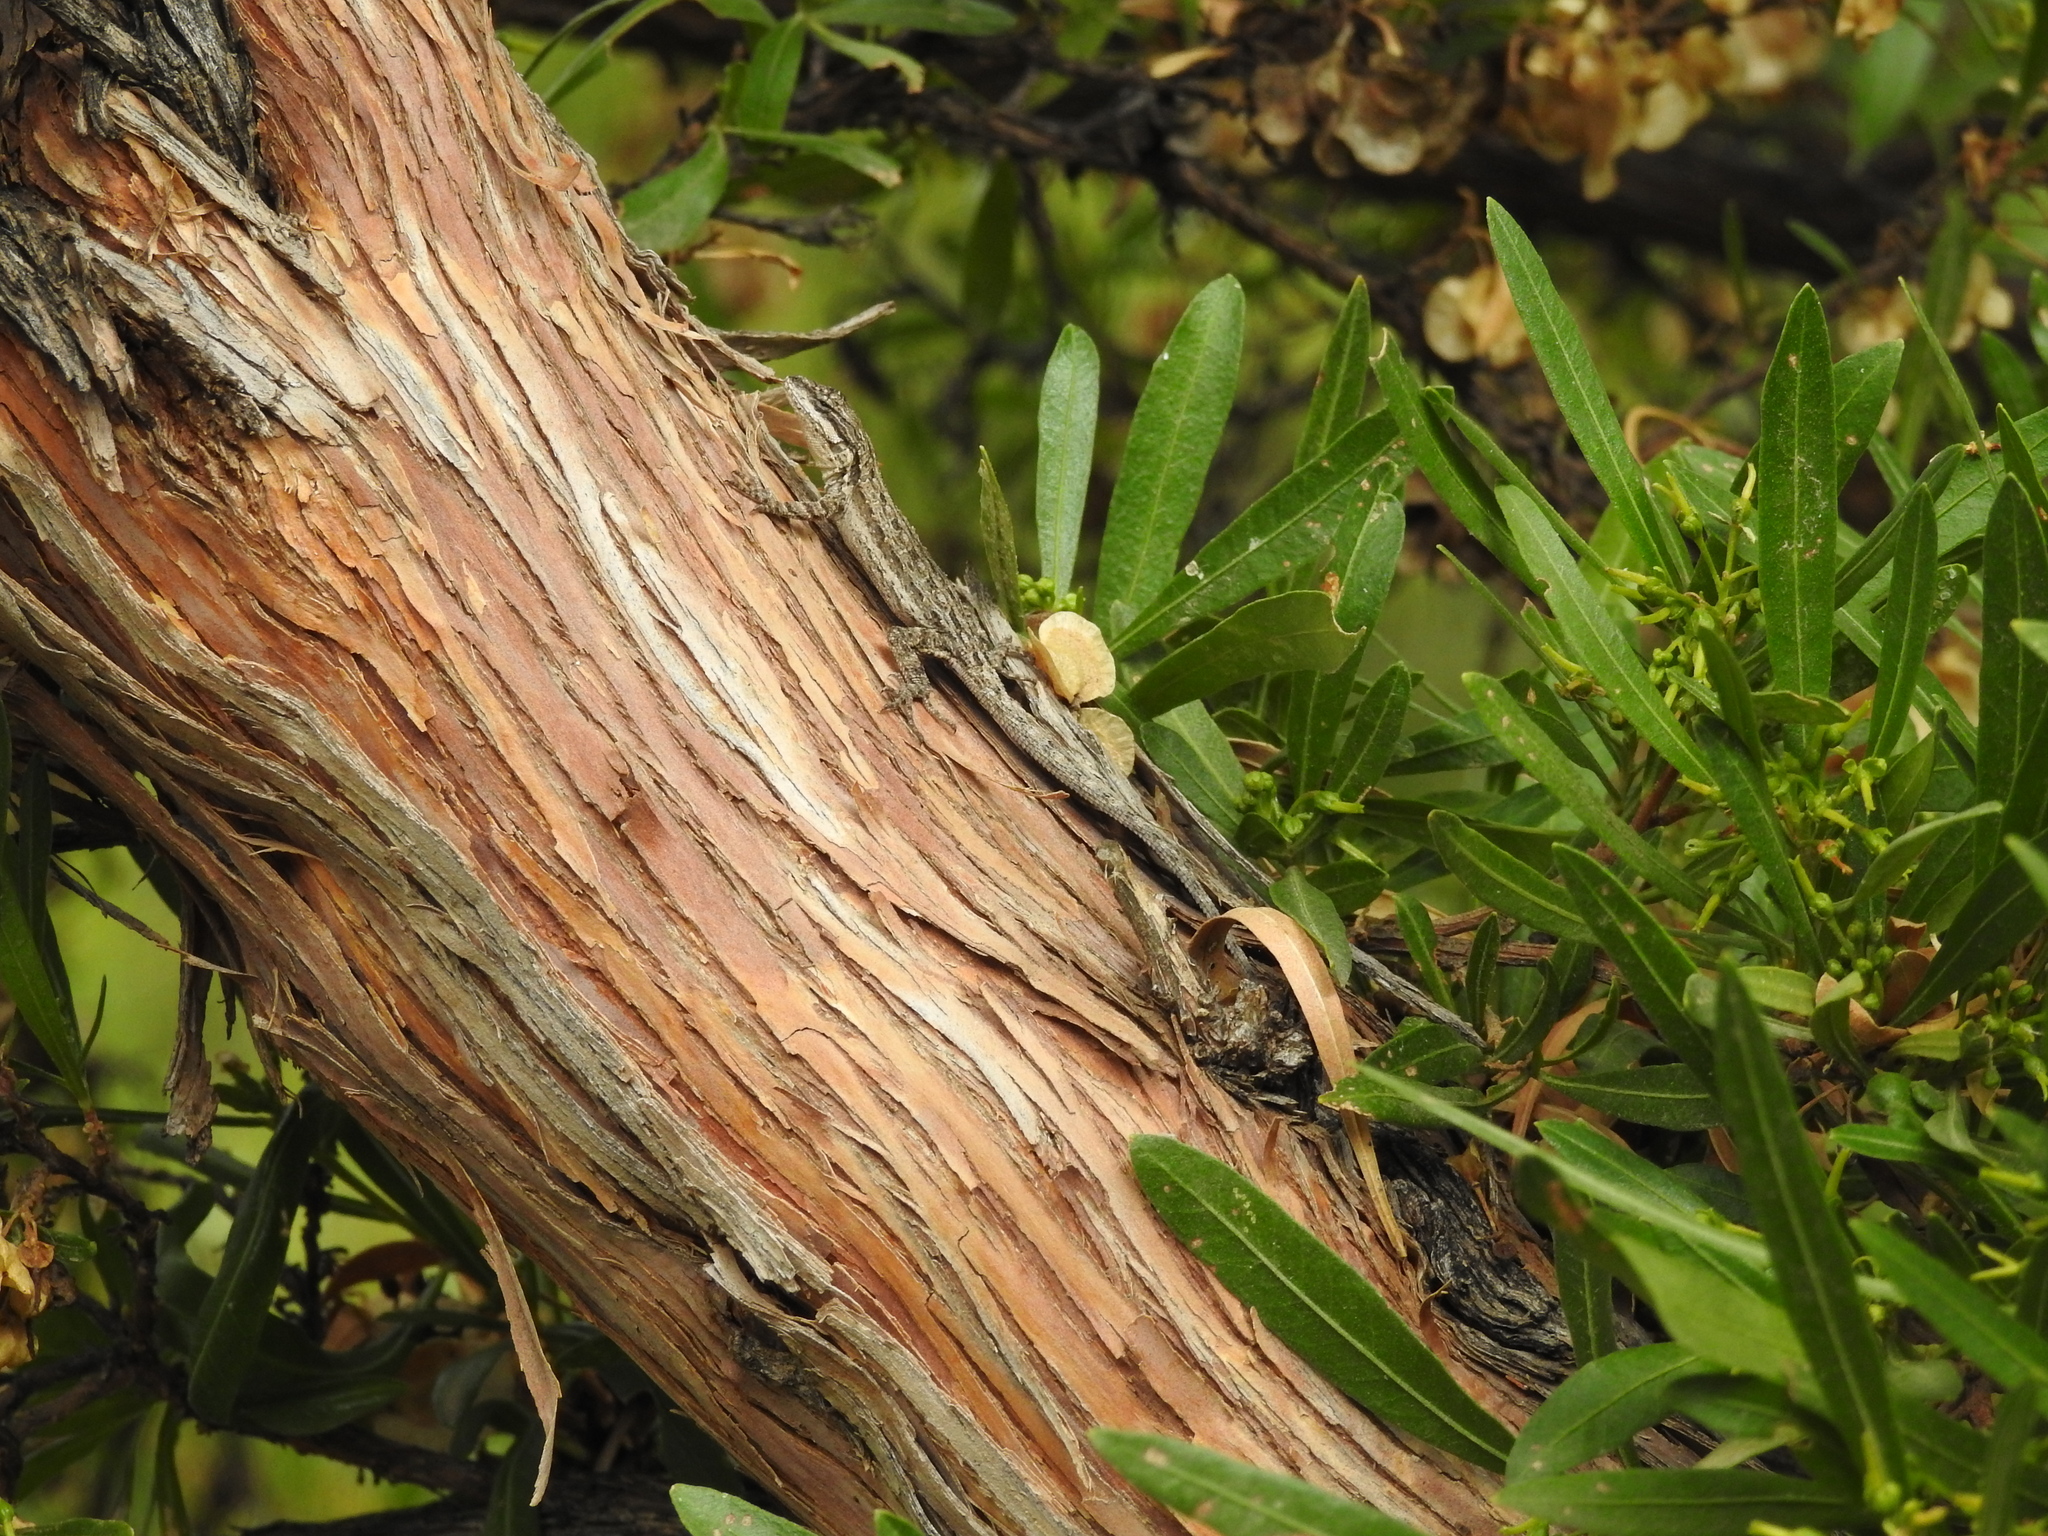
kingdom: Animalia
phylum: Chordata
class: Squamata
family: Phrynosomatidae
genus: Urosaurus
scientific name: Urosaurus ornatus
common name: Ornate tree lizard
